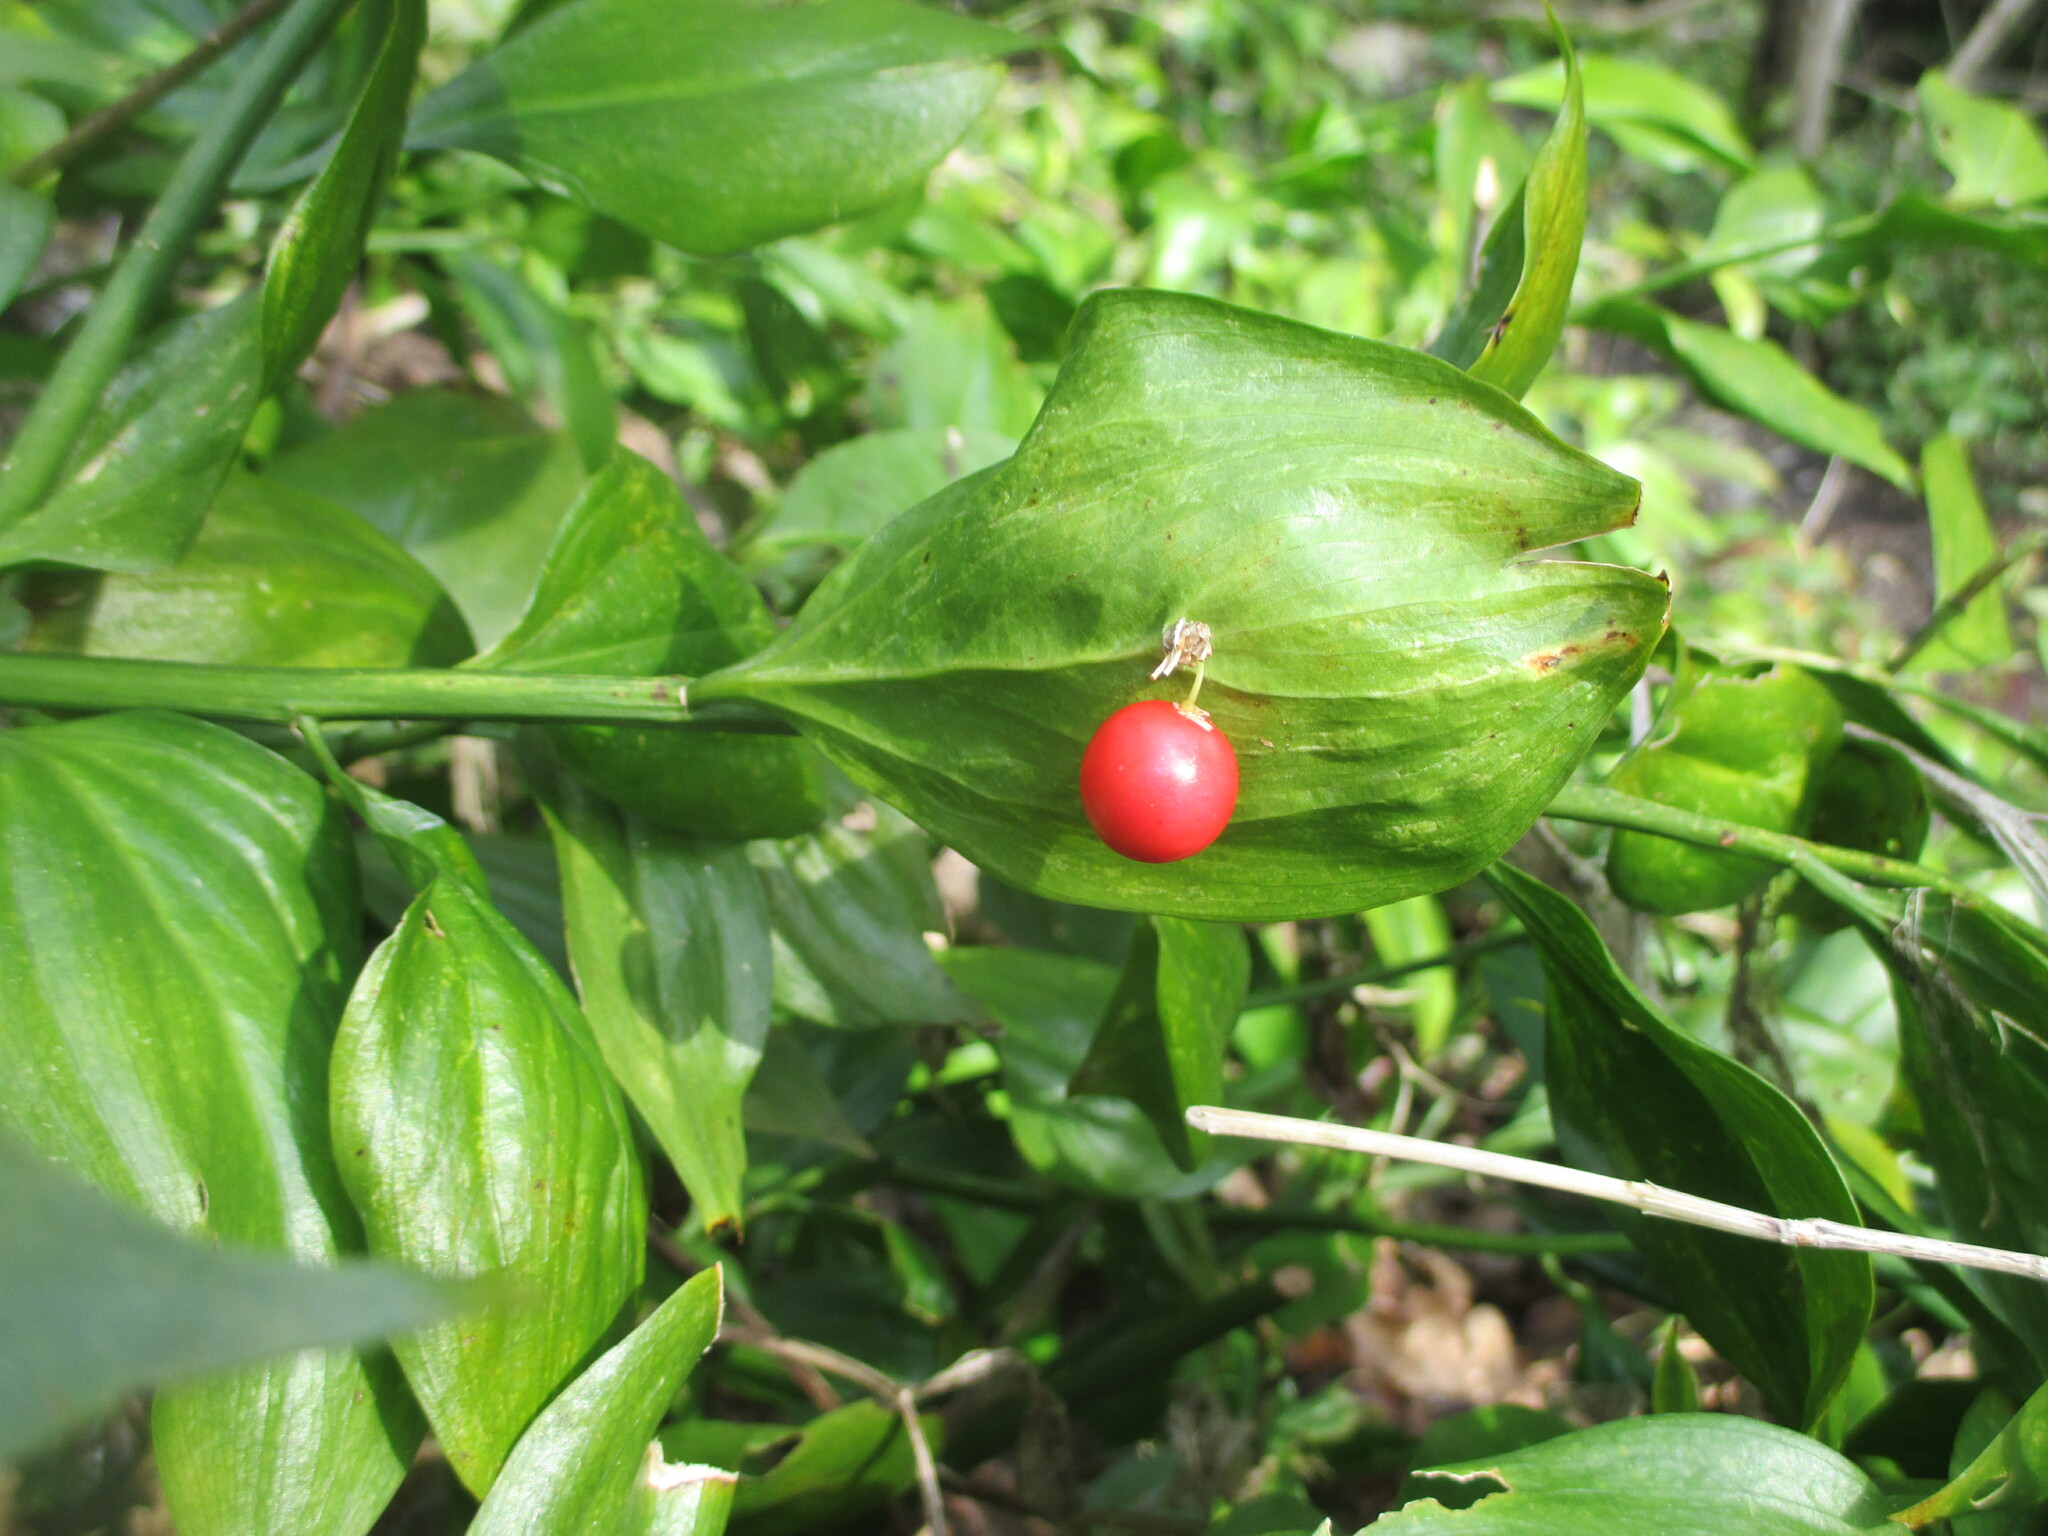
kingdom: Plantae
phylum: Tracheophyta
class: Liliopsida
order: Asparagales
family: Asparagaceae
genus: Ruscus
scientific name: Ruscus colchicus
